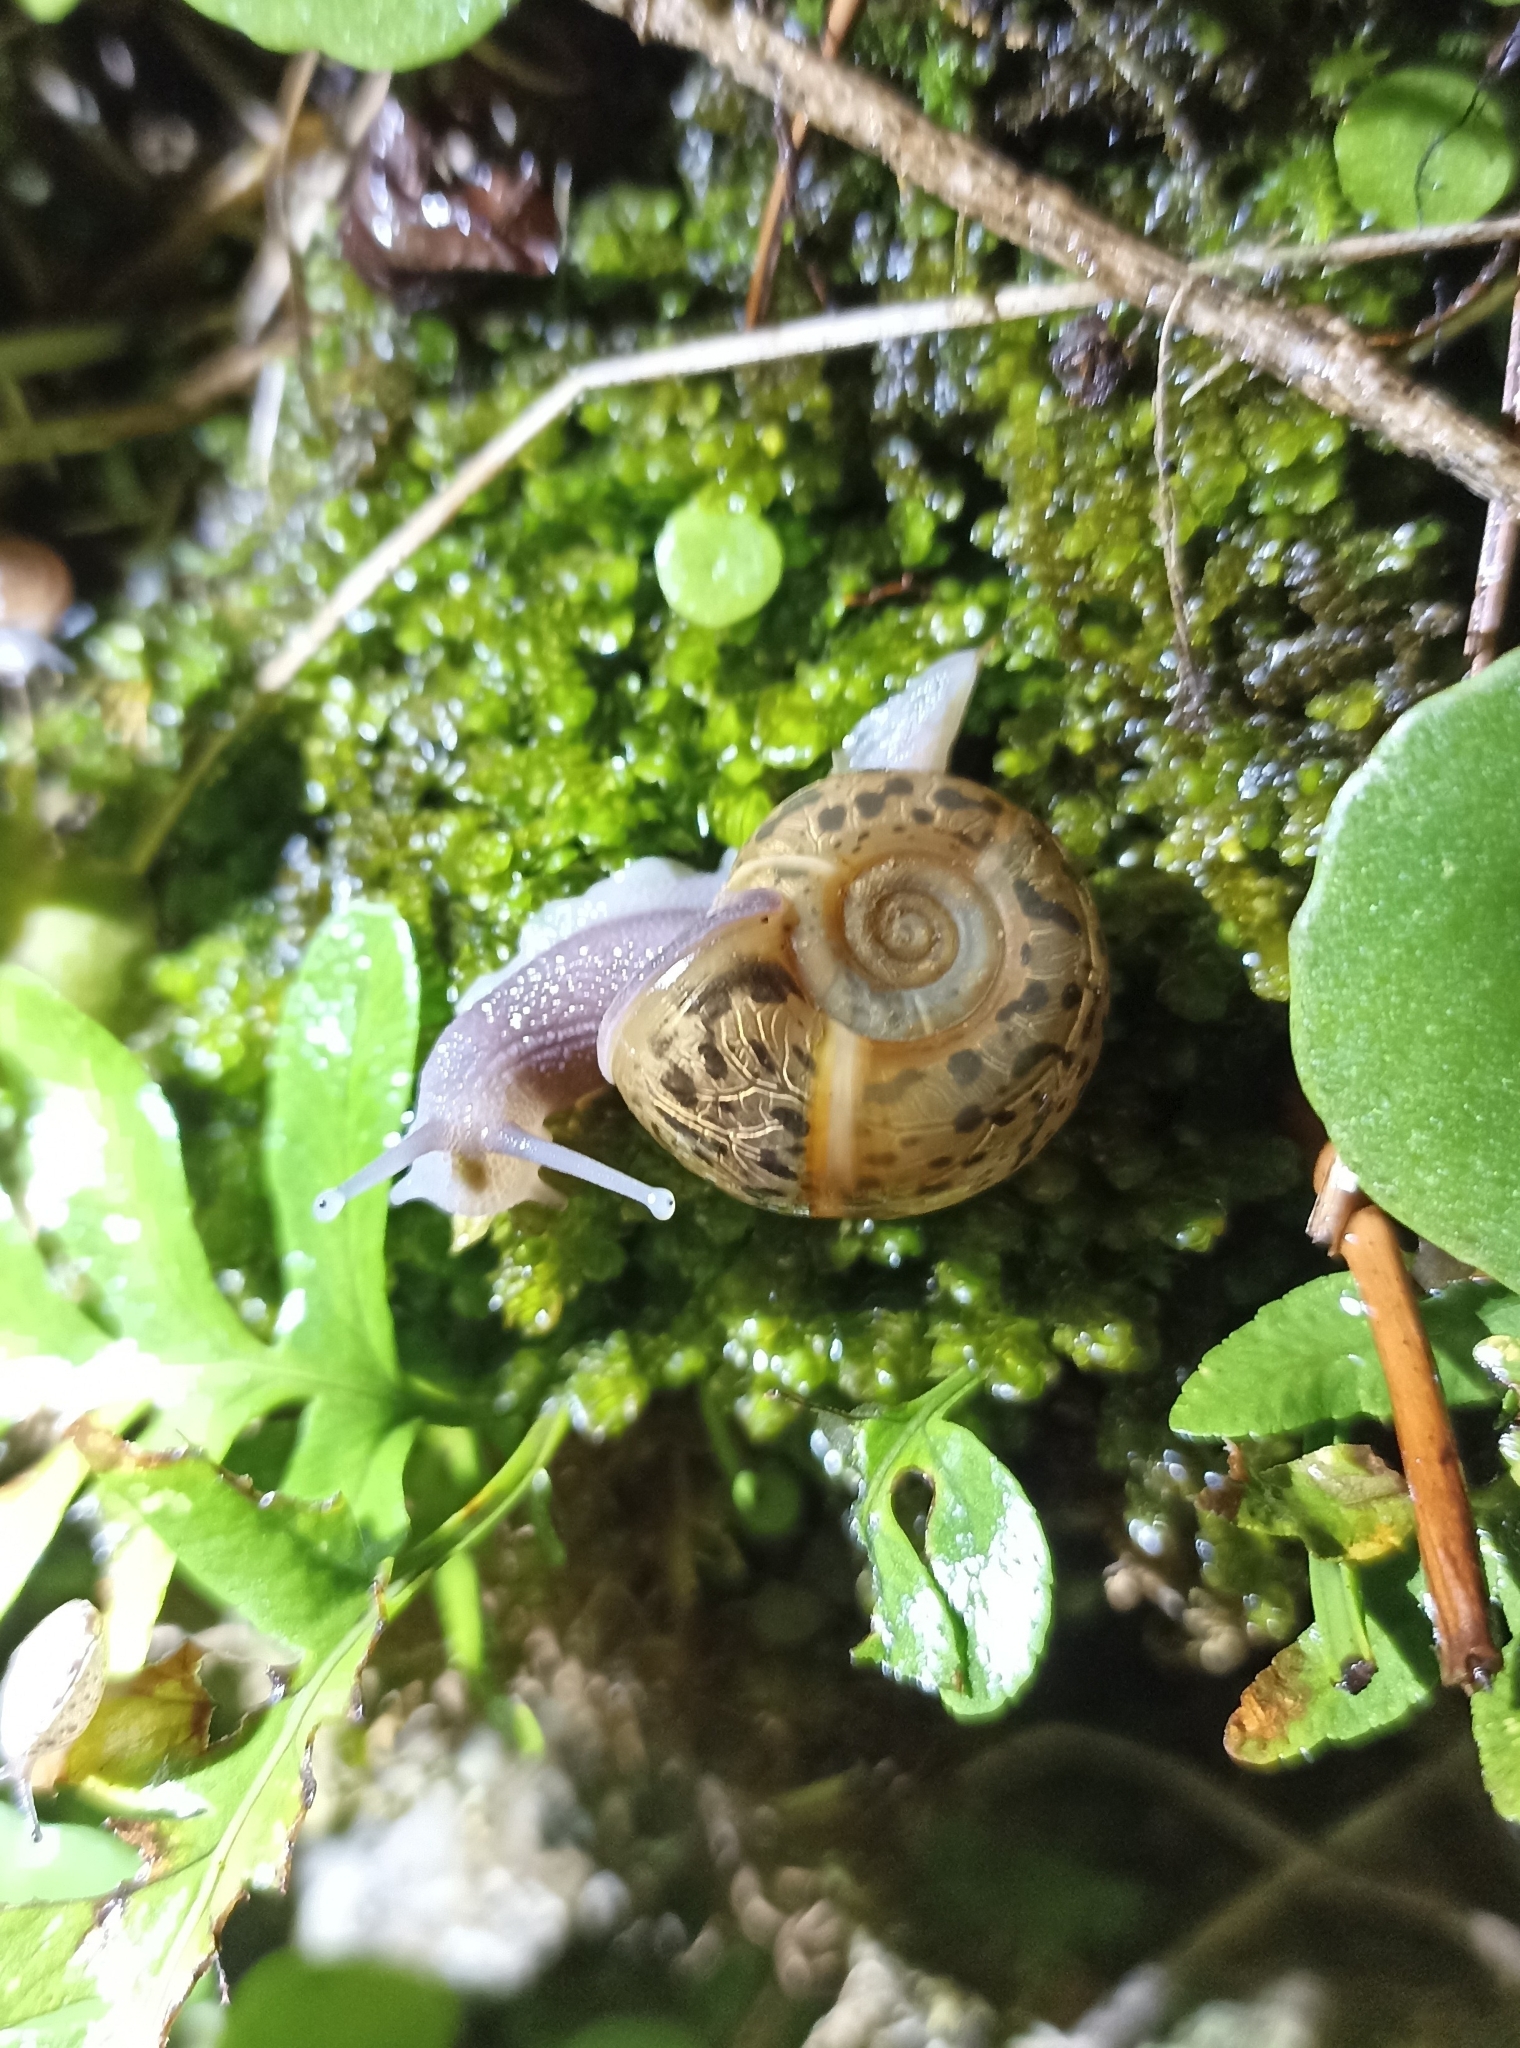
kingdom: Animalia
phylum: Mollusca
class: Gastropoda
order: Stylommatophora
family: Elonidae
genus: Elona
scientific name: Elona quimperiana
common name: Quimper snail
